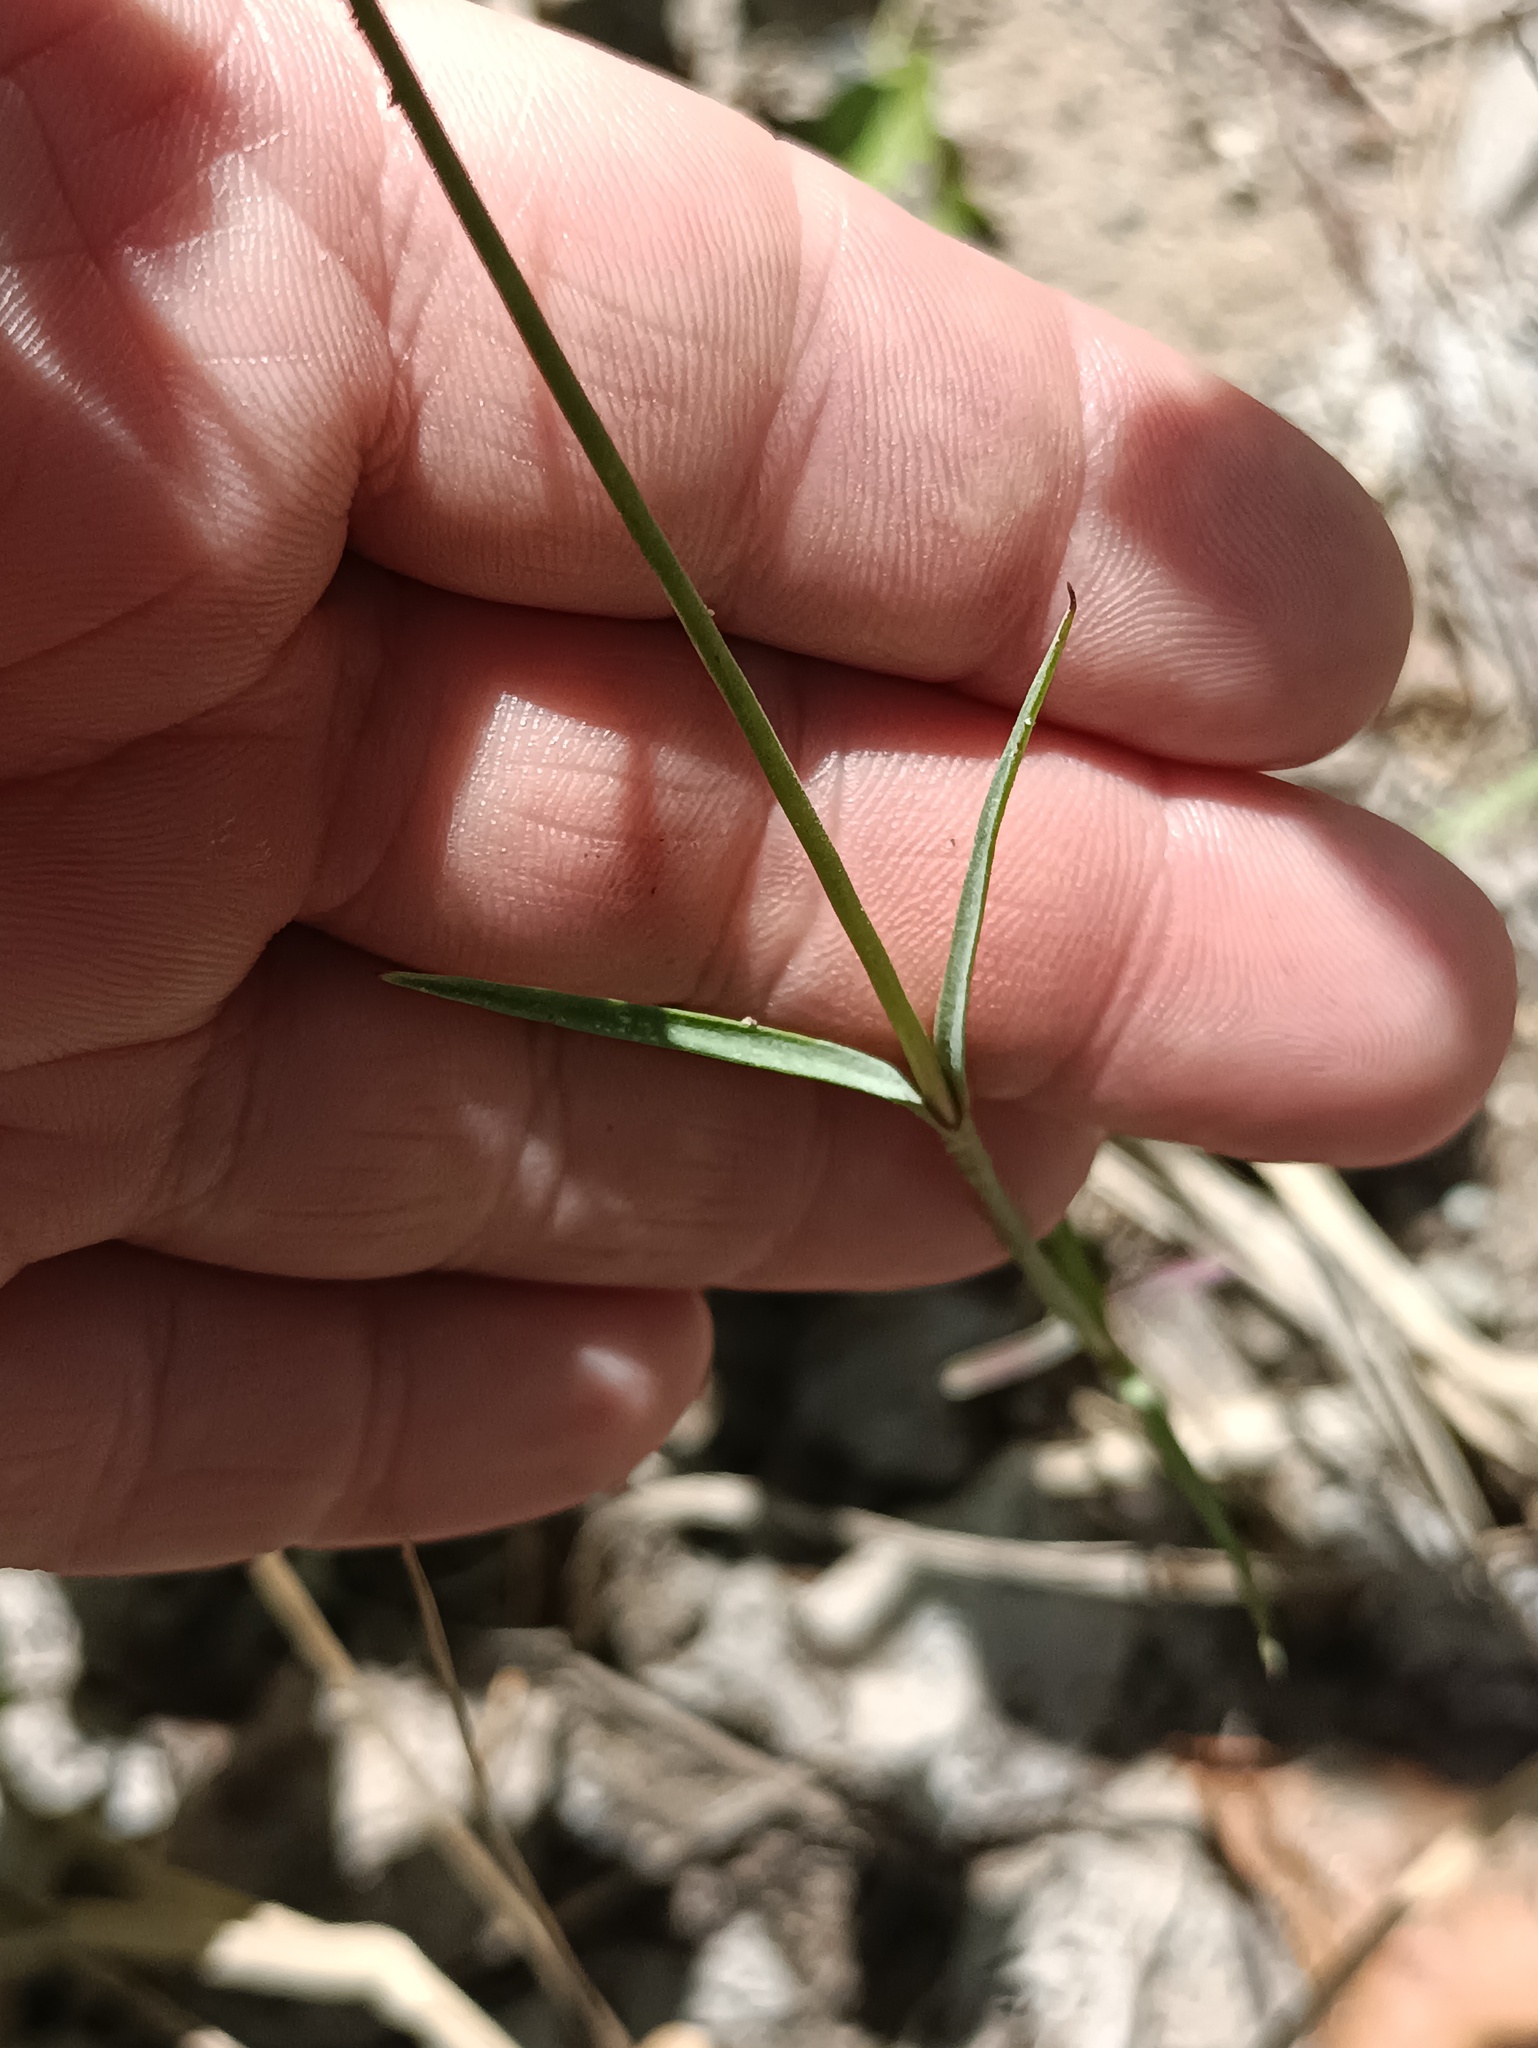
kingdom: Plantae
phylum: Tracheophyta
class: Magnoliopsida
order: Caryophyllales
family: Caryophyllaceae
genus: Dianthus
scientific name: Dianthus borbasii
